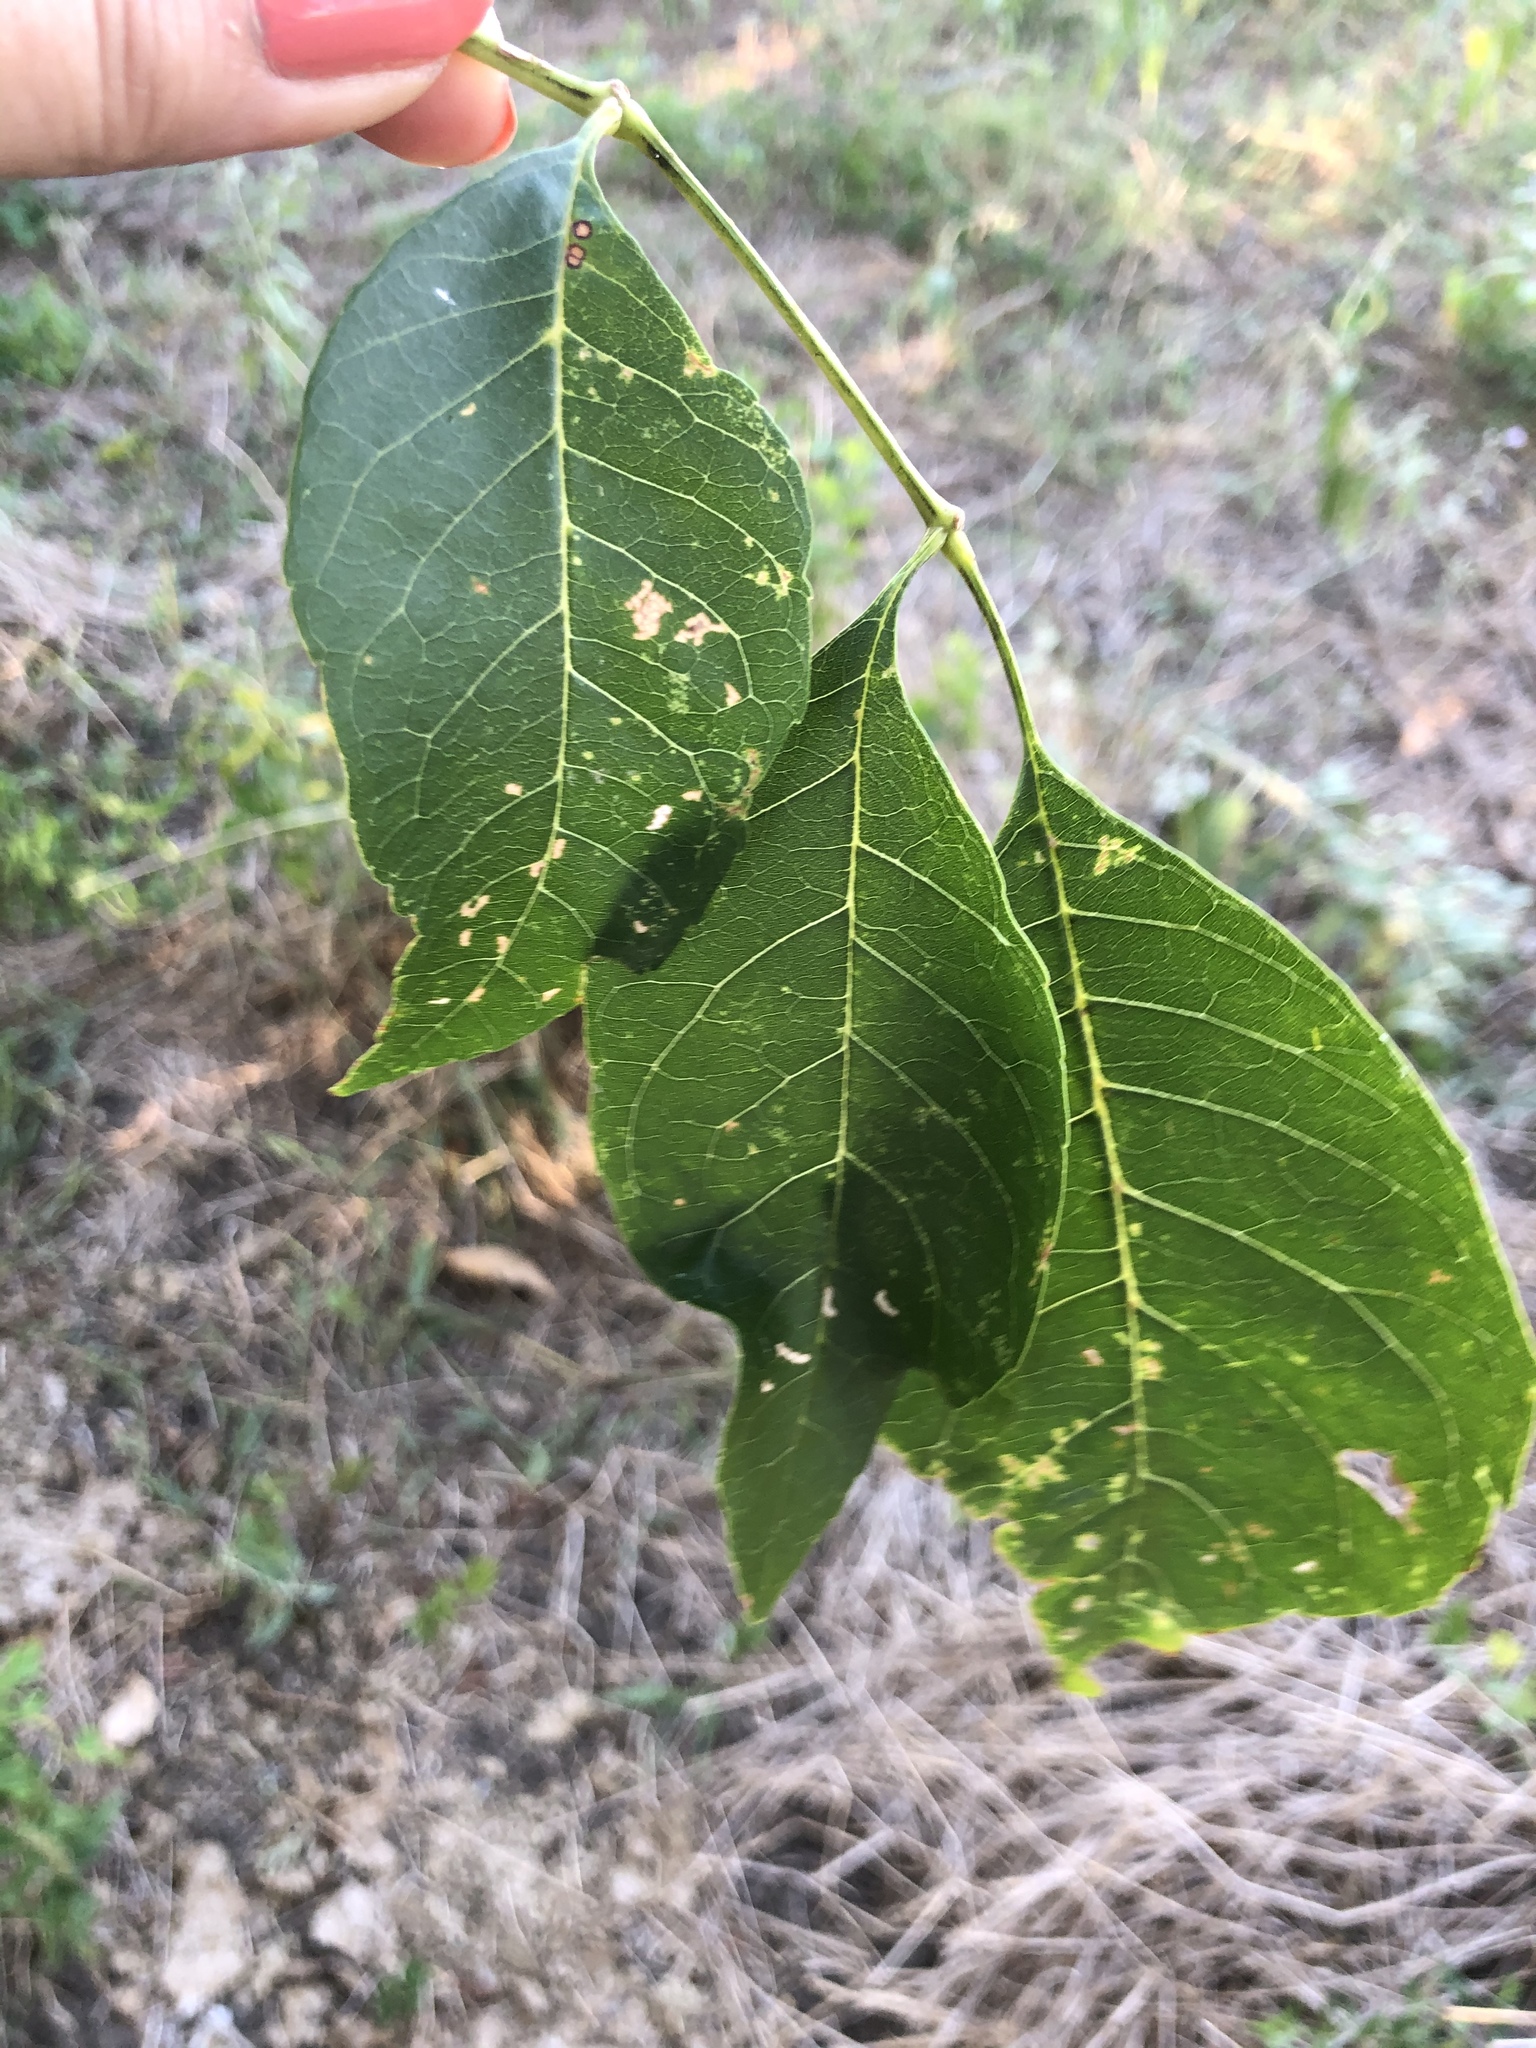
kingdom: Plantae
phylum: Tracheophyta
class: Magnoliopsida
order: Lamiales
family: Oleaceae
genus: Fraxinus
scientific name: Fraxinus pennsylvanica
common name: Green ash
